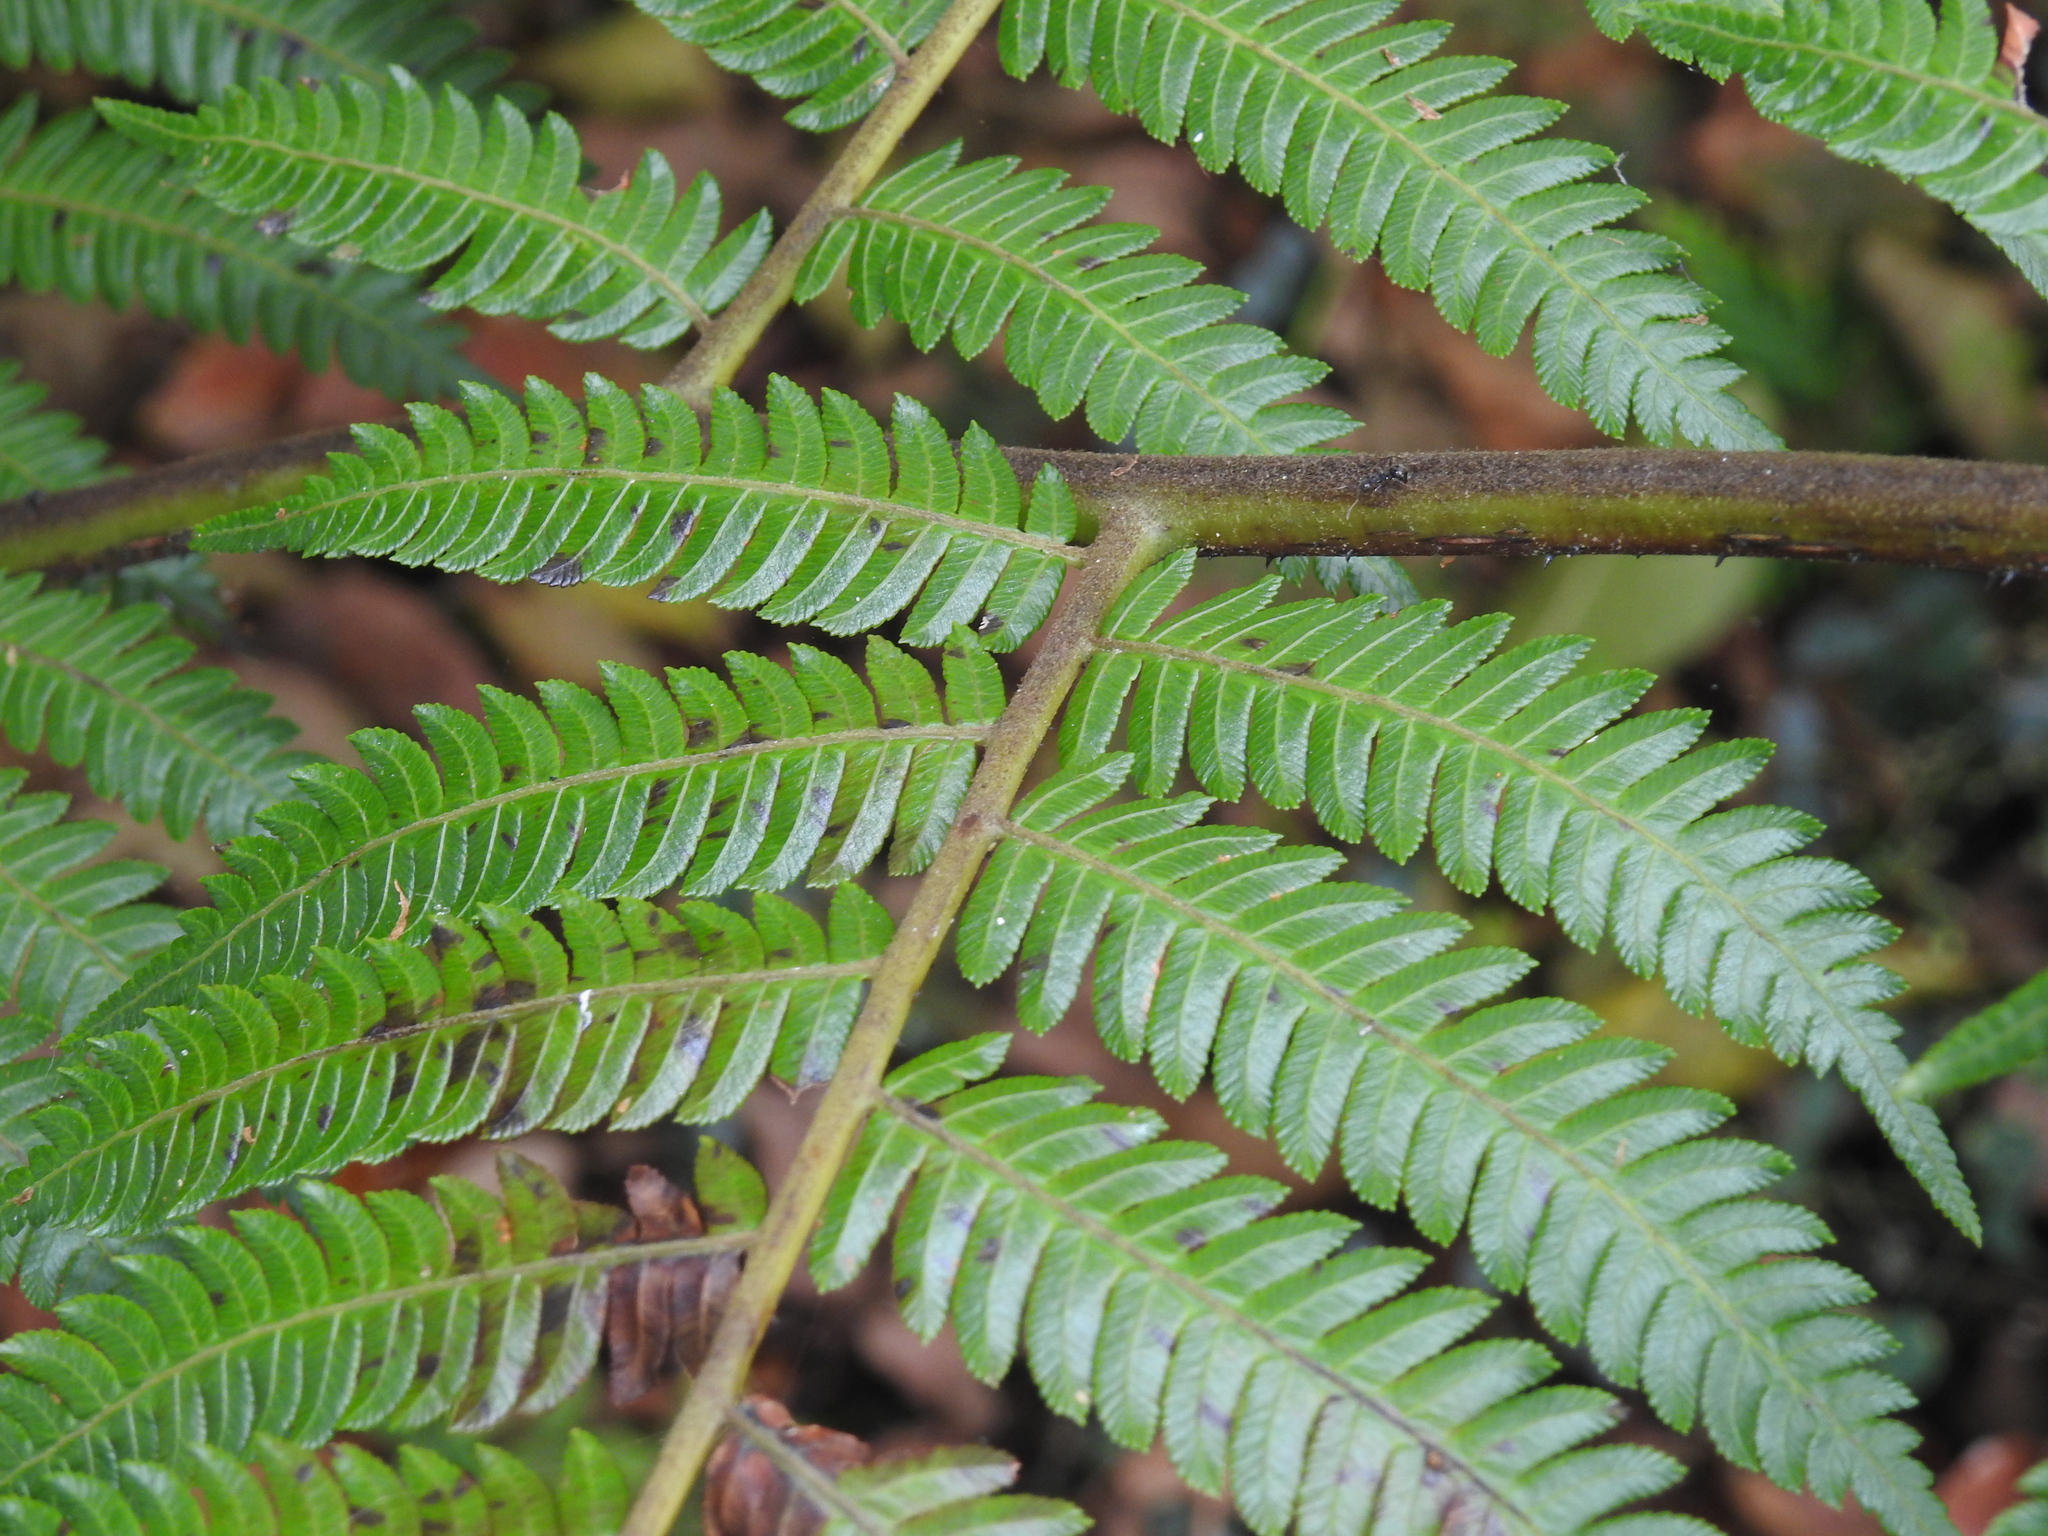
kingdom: Plantae
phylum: Tracheophyta
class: Polypodiopsida
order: Cyatheales
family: Cyatheaceae
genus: Alsophila
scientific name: Alsophila spinulosa
